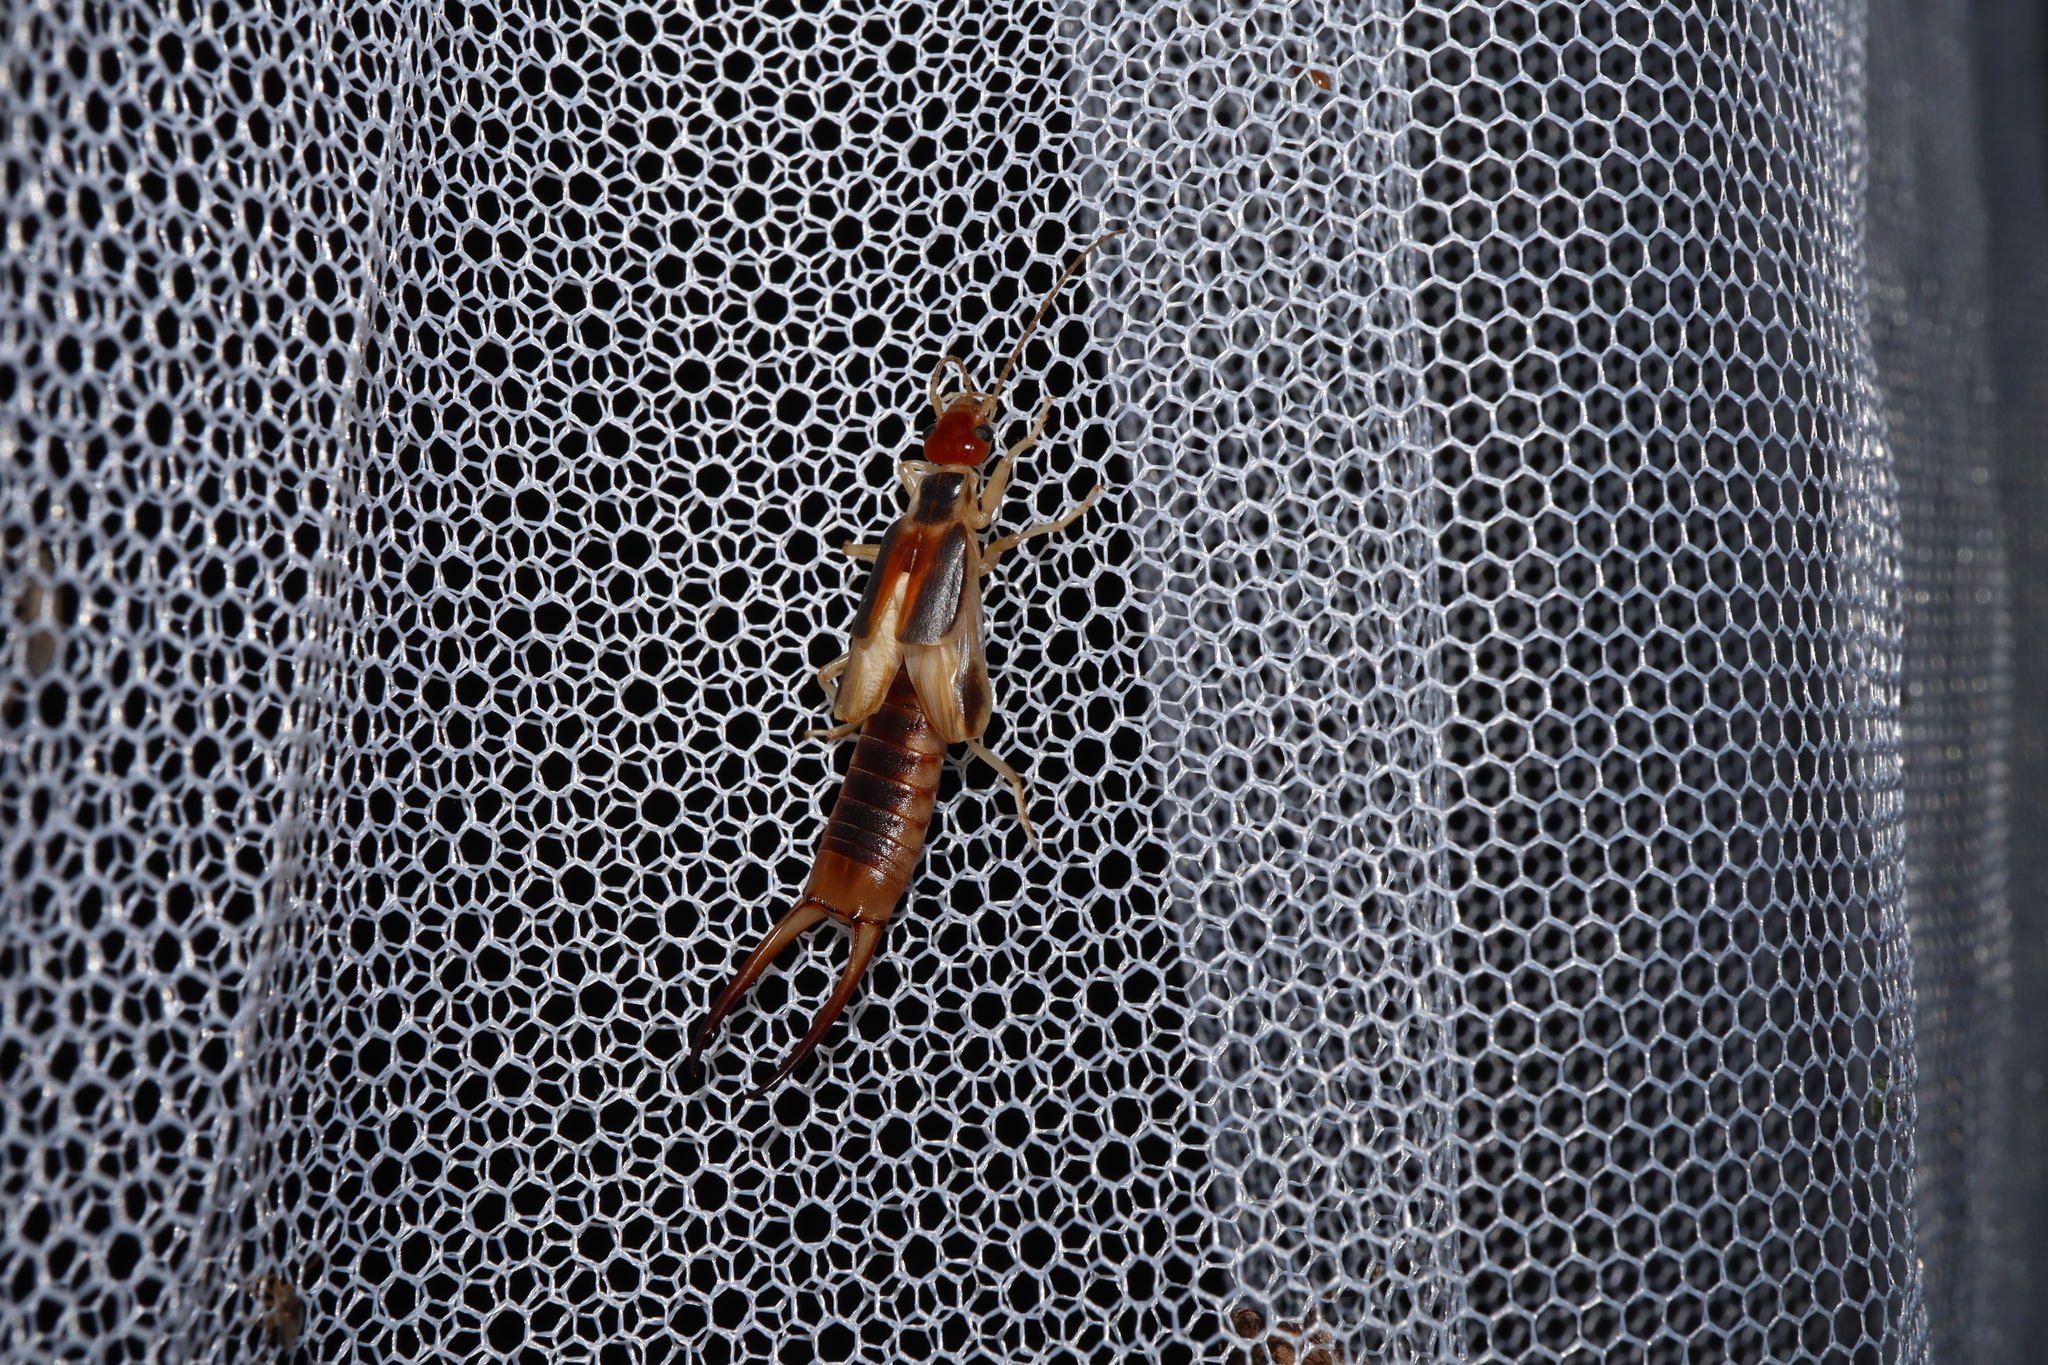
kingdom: Animalia
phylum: Arthropoda
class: Insecta
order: Dermaptera
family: Labiduridae
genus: Labidura
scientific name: Labidura riparia
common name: Striped earwig
